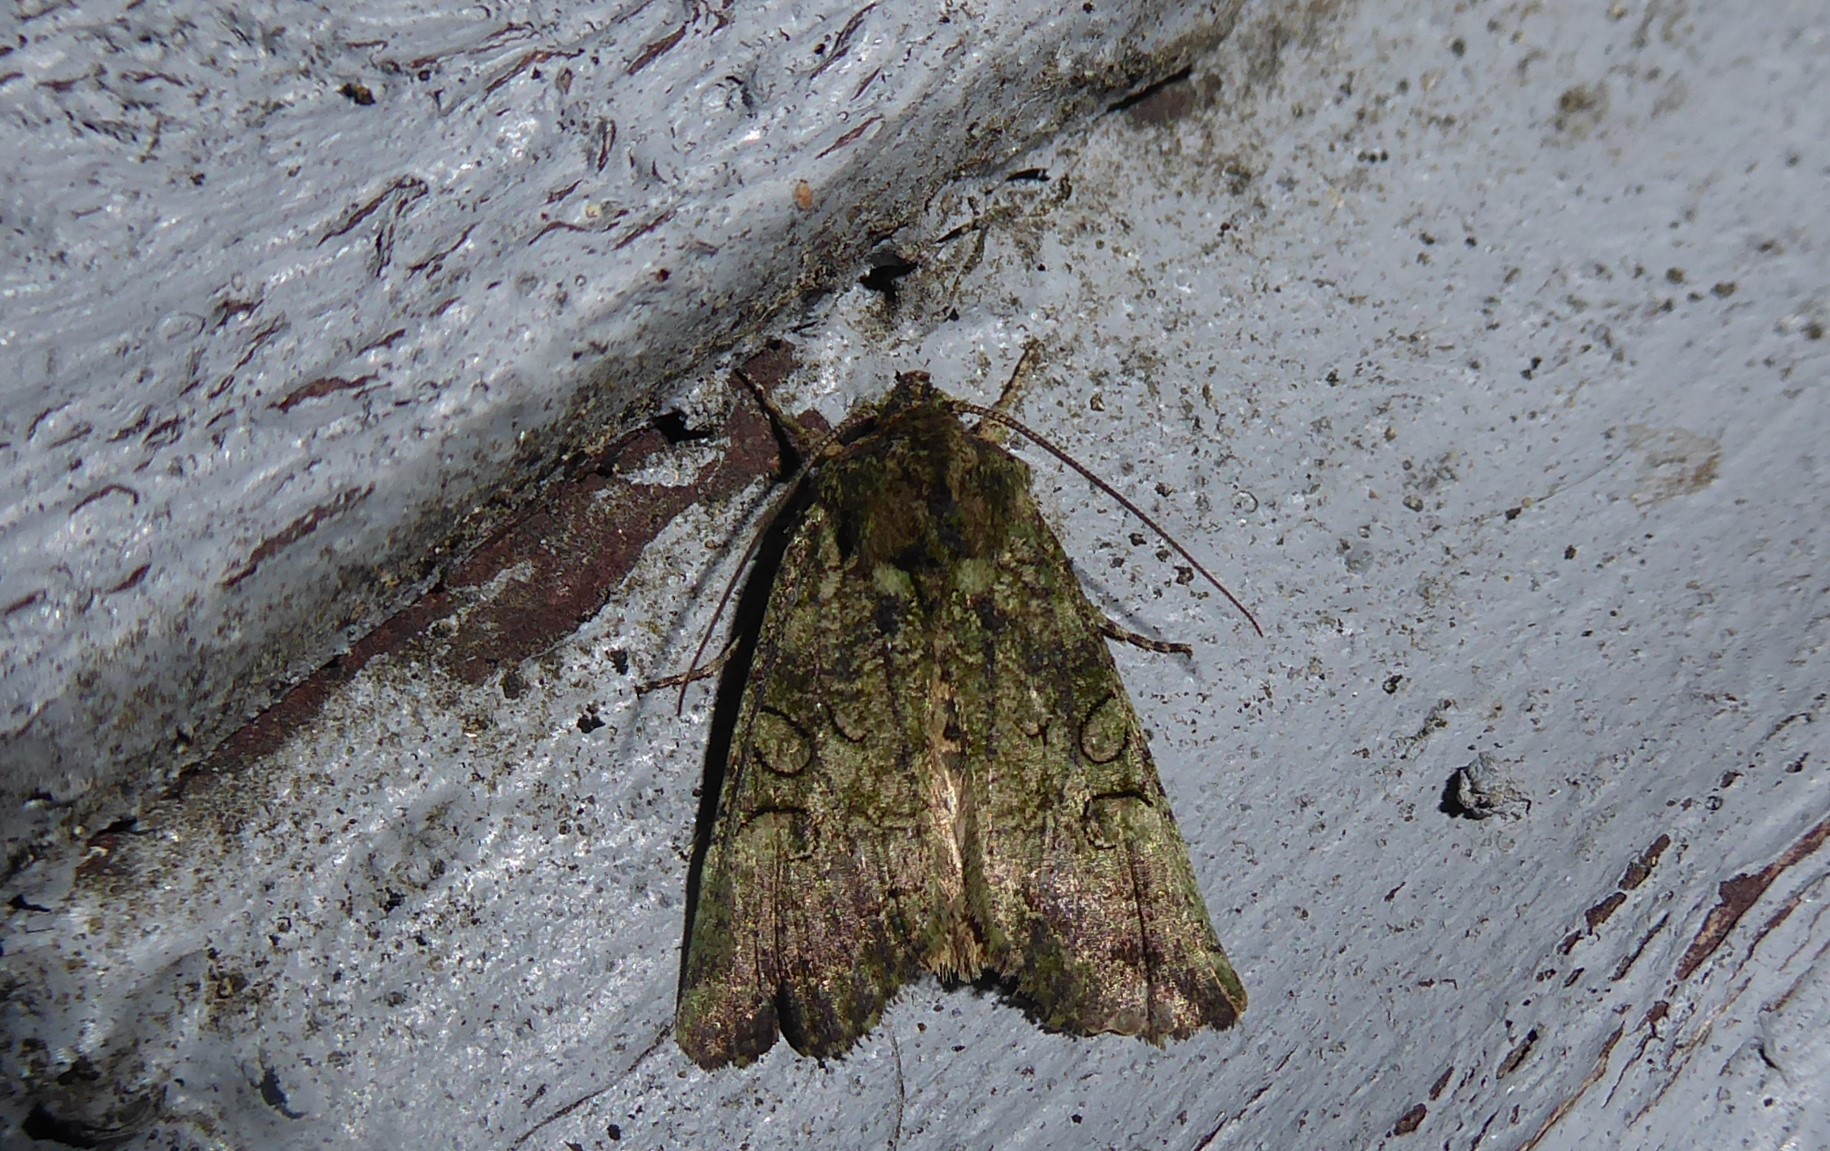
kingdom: Animalia
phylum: Arthropoda
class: Insecta
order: Lepidoptera
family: Noctuidae
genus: Meterana
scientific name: Meterana levis
